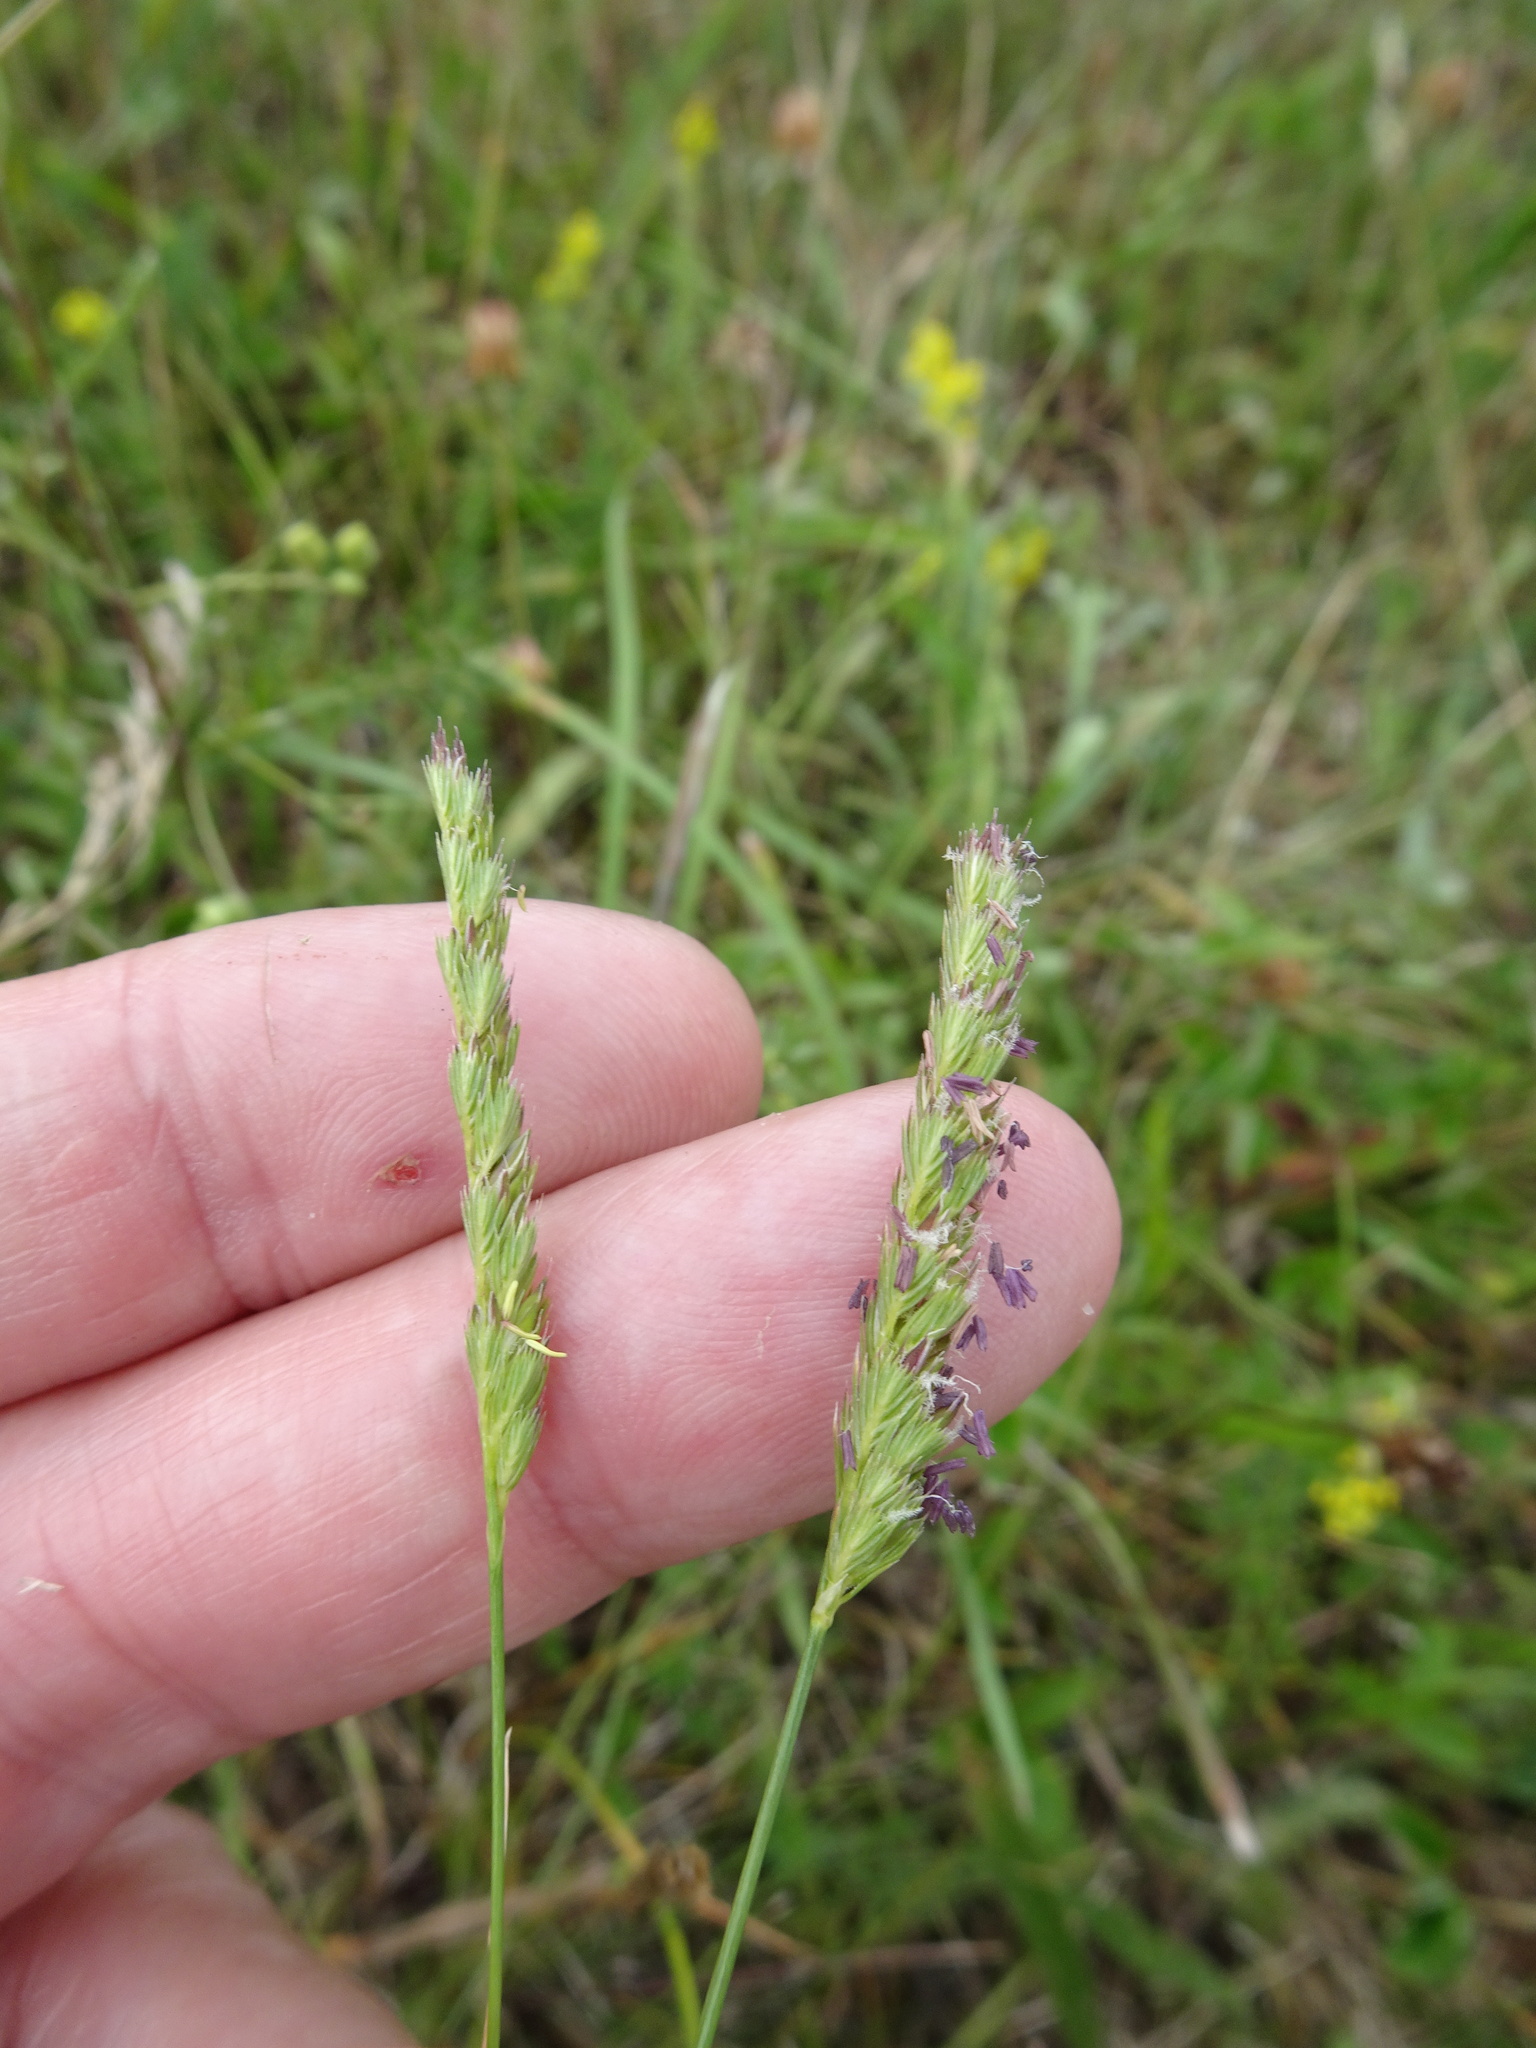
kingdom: Plantae
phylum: Tracheophyta
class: Liliopsida
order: Poales
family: Poaceae
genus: Cynosurus
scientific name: Cynosurus cristatus
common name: Crested dog's-tail
